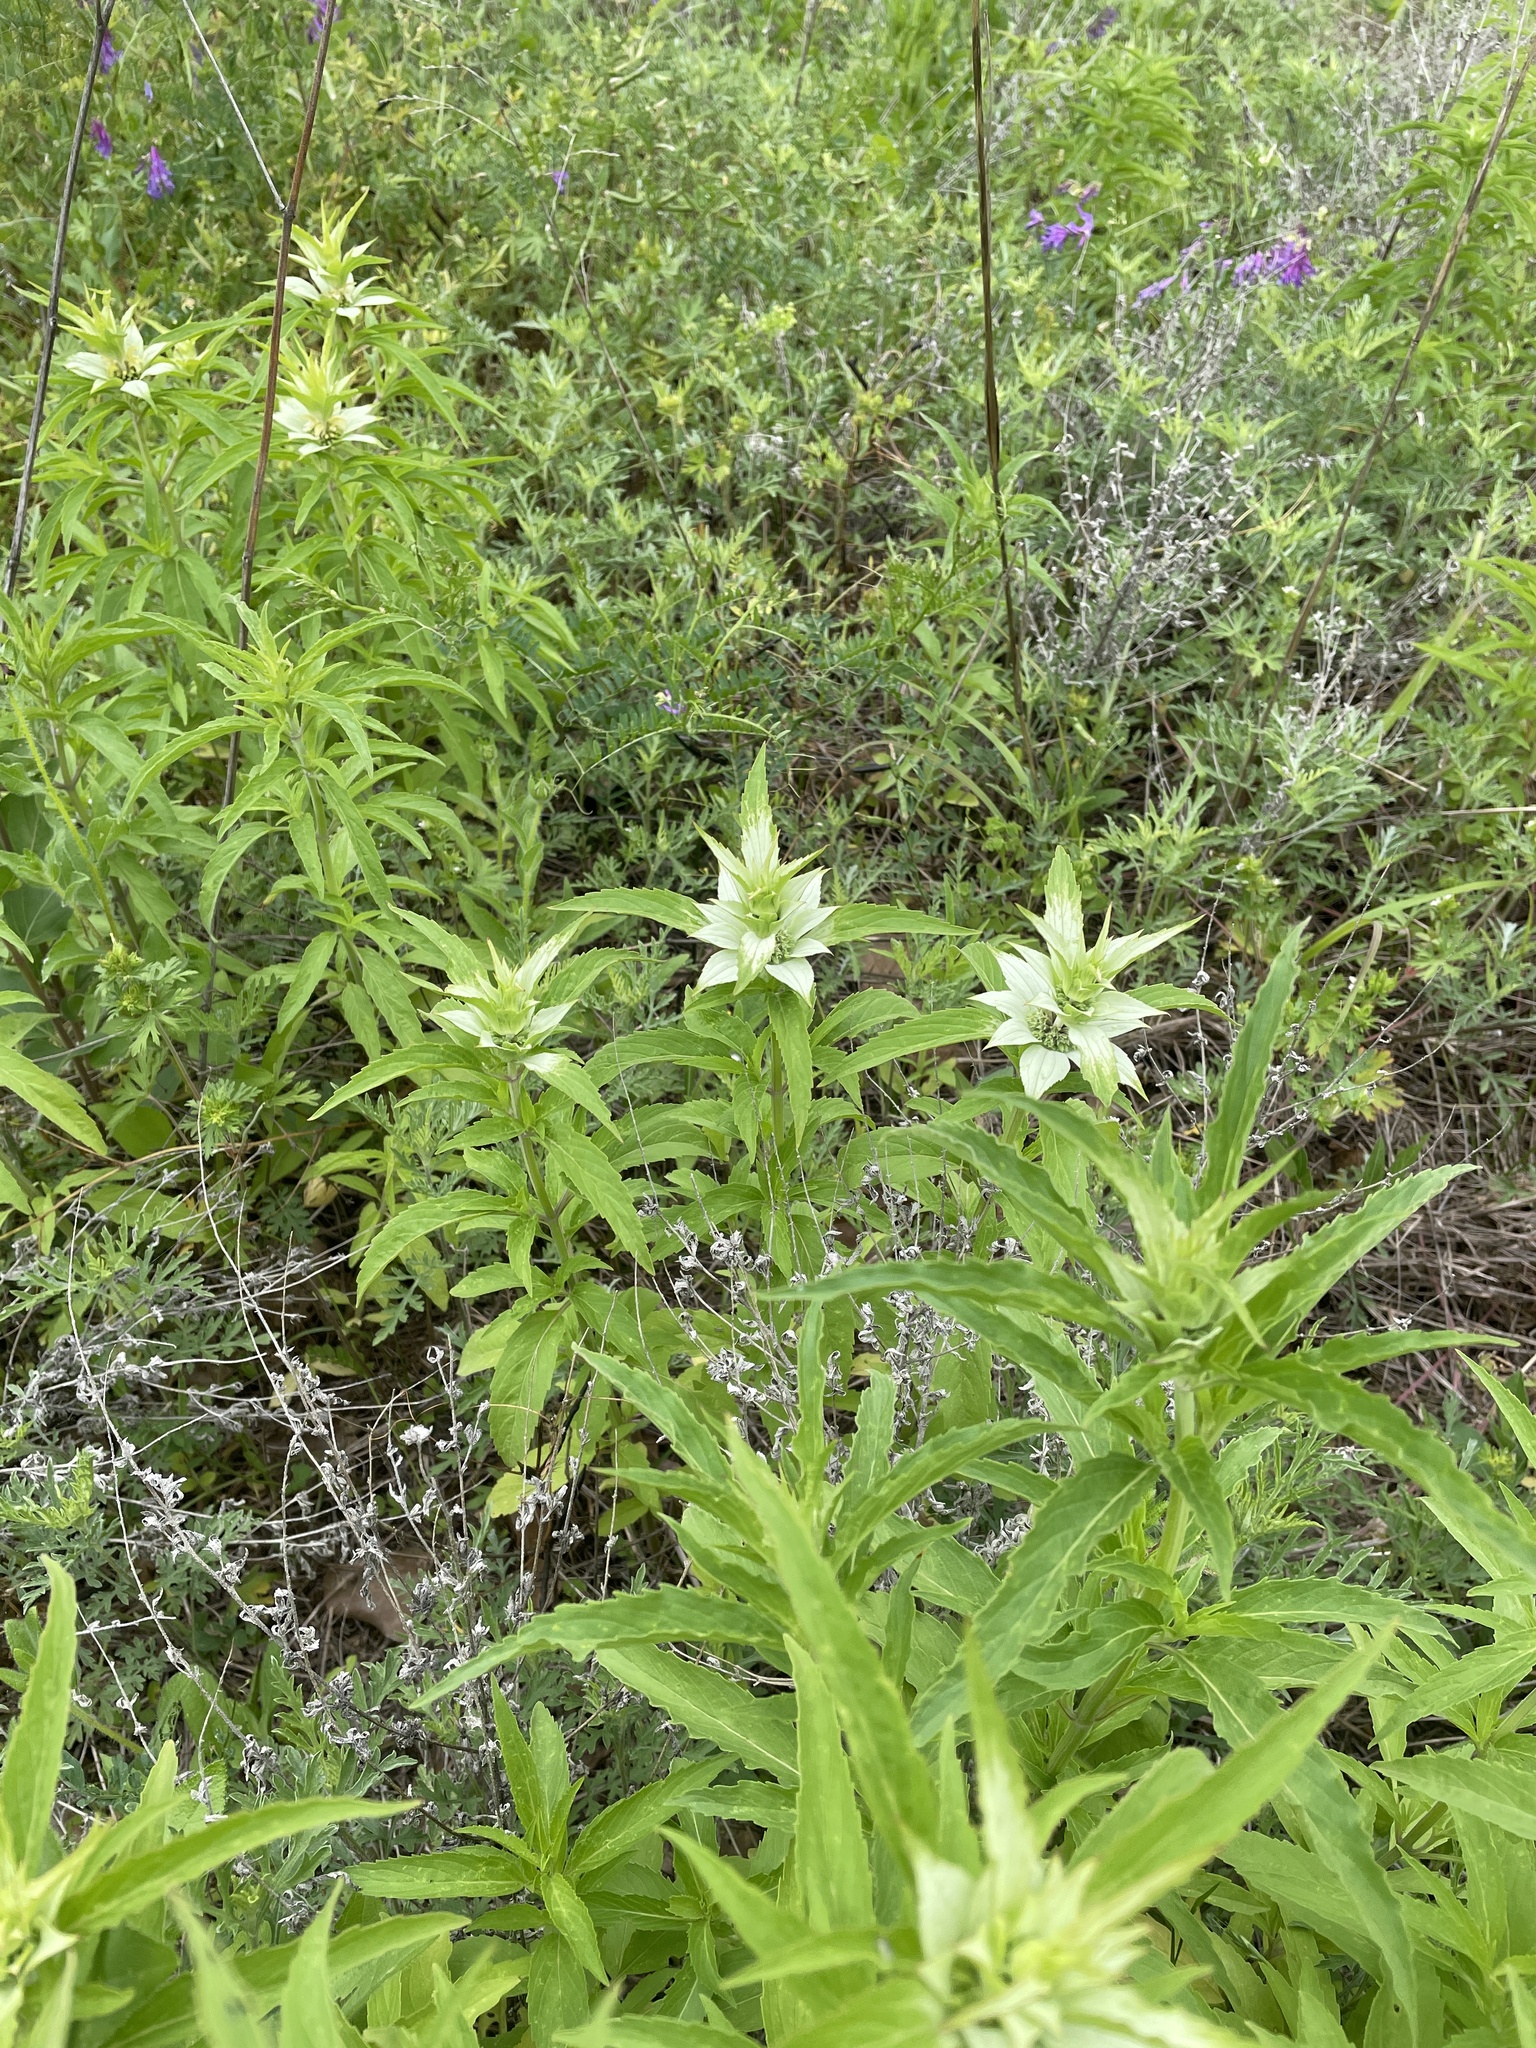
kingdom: Plantae
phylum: Tracheophyta
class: Magnoliopsida
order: Lamiales
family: Lamiaceae
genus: Monarda
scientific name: Monarda punctata
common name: Dotted monarda
